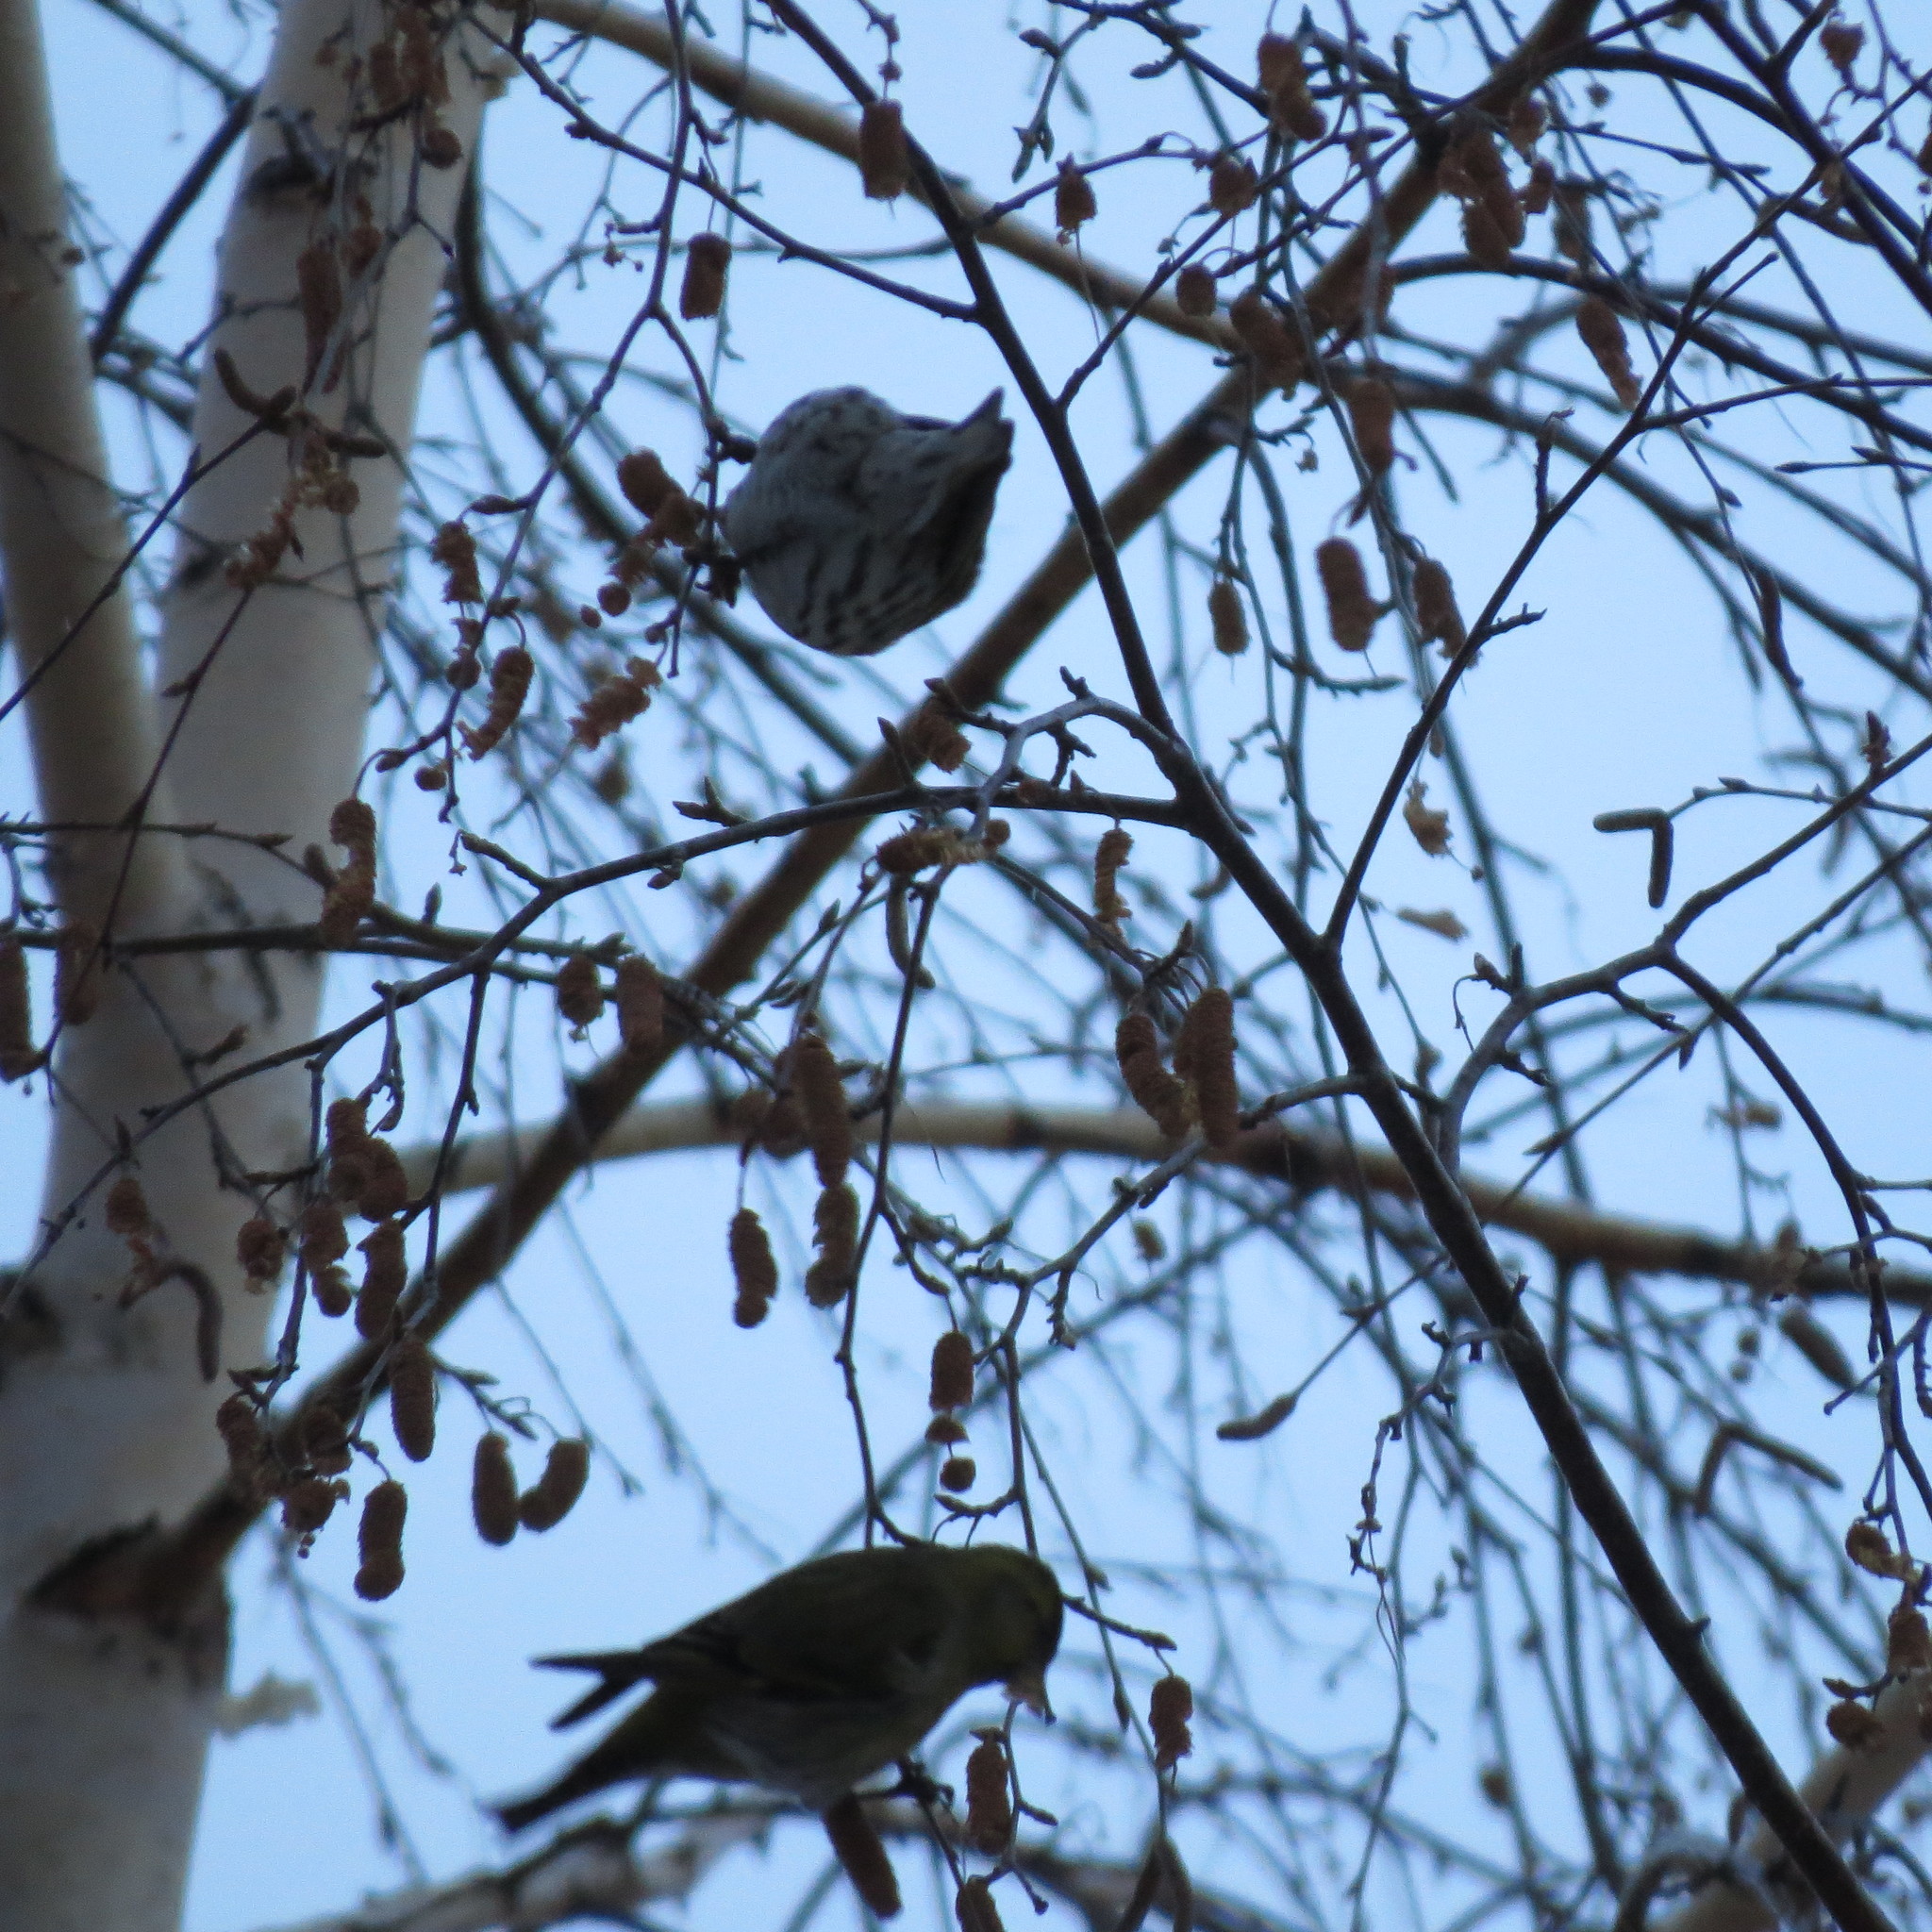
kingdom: Animalia
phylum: Chordata
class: Aves
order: Passeriformes
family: Fringillidae
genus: Spinus
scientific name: Spinus spinus
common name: Eurasian siskin
